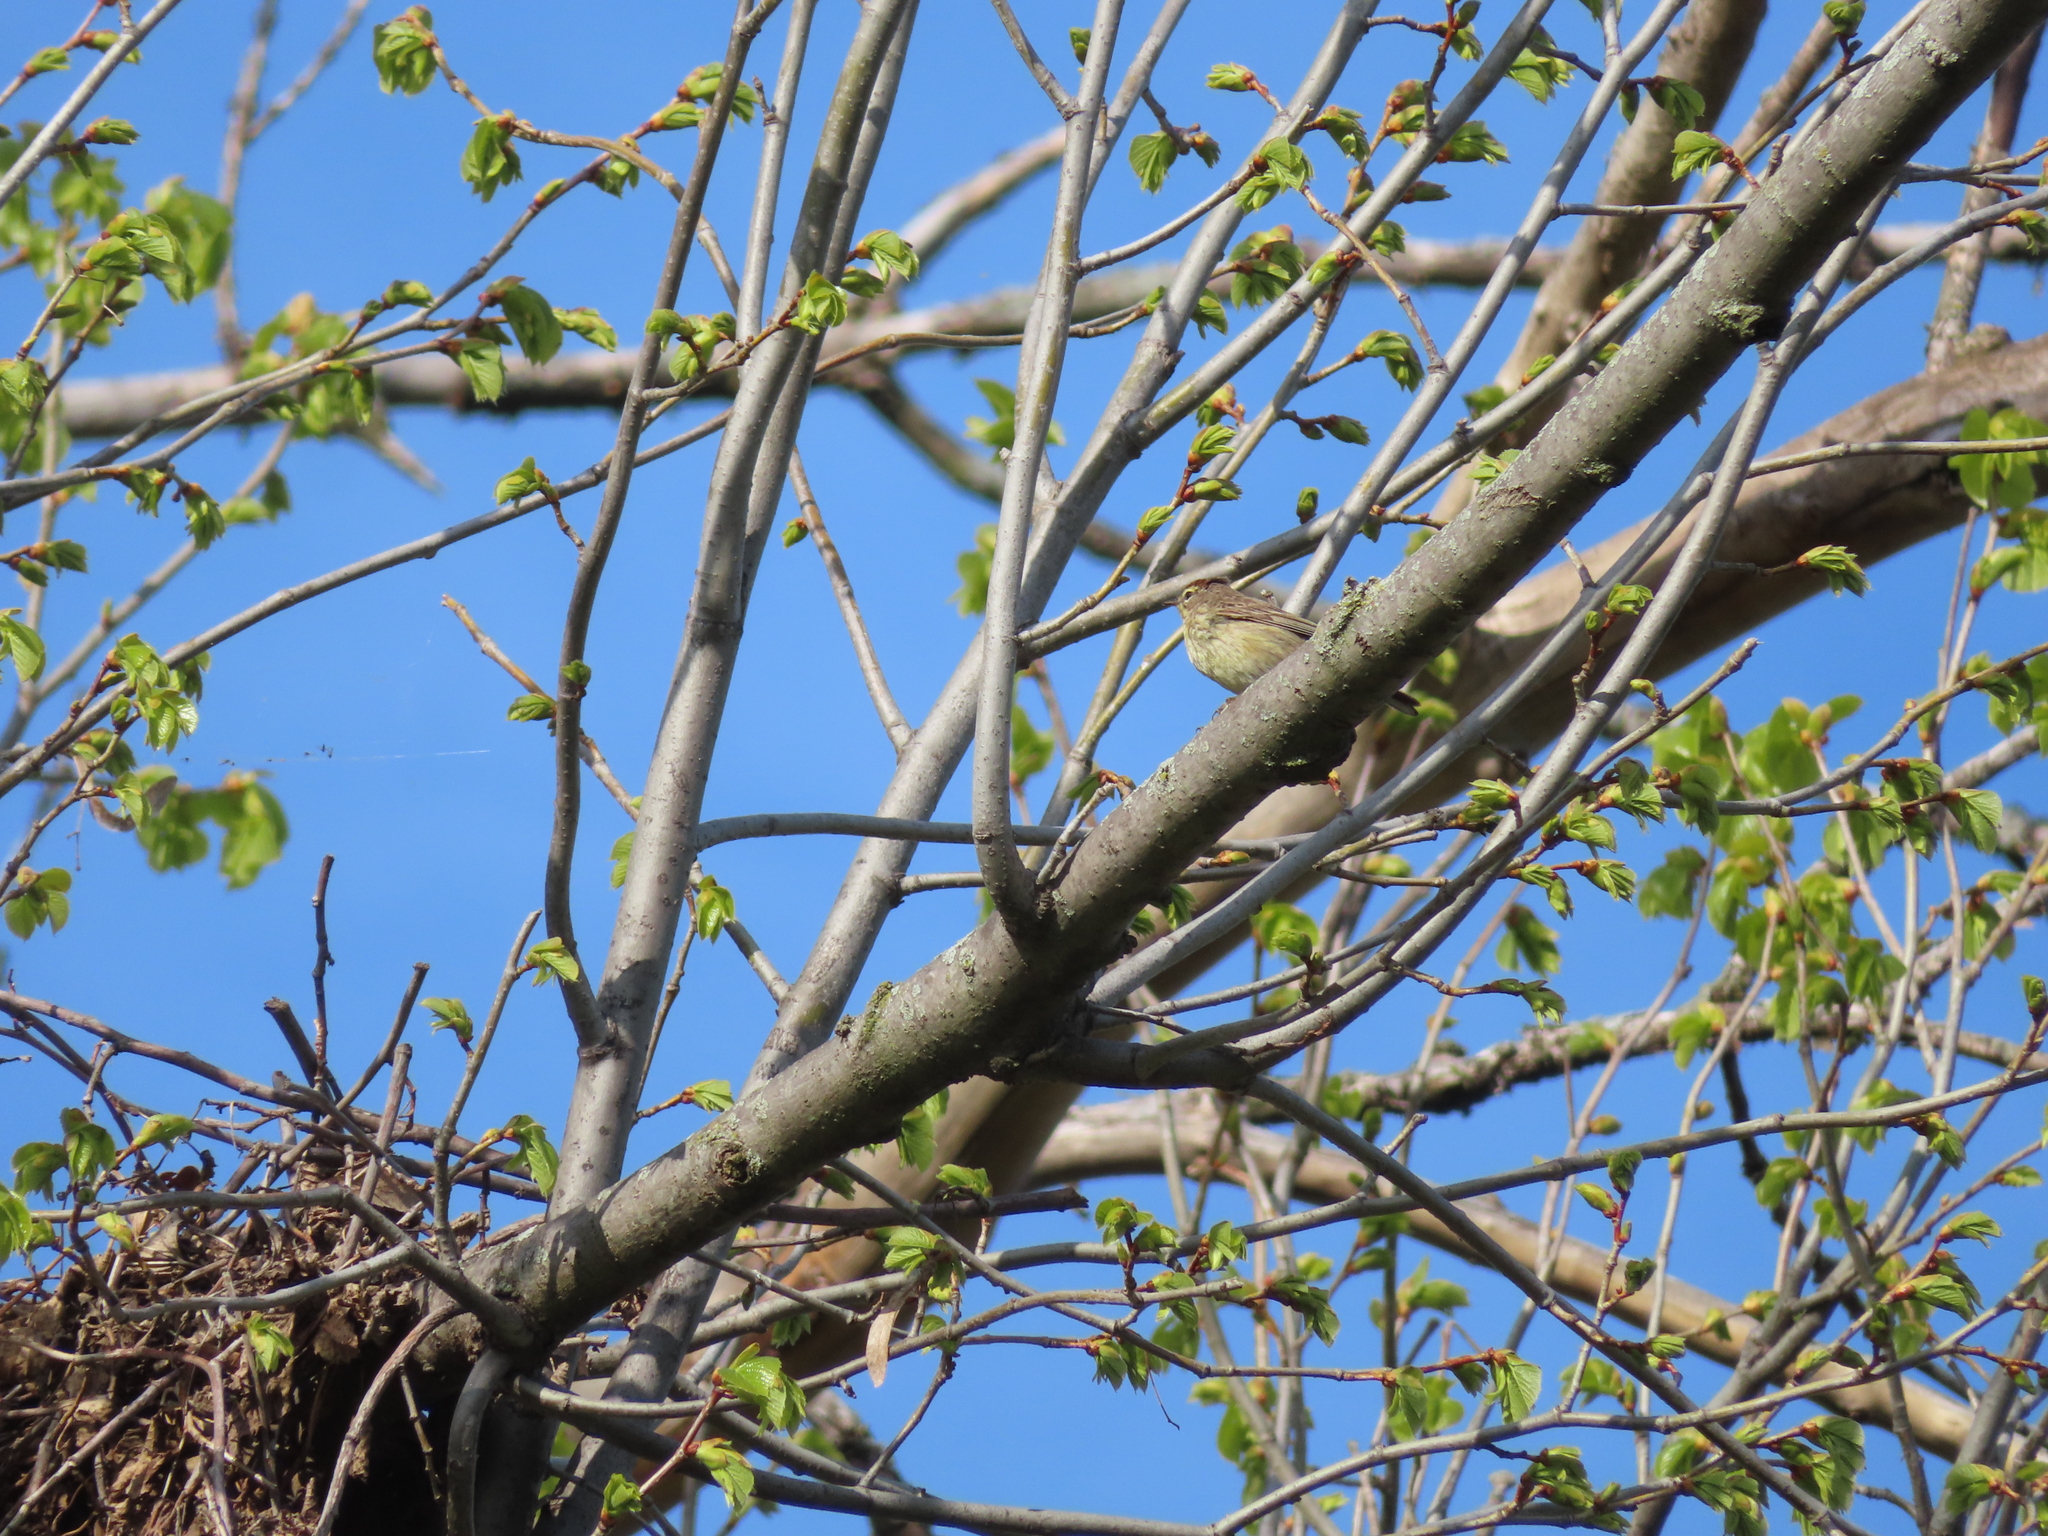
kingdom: Animalia
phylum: Chordata
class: Aves
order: Passeriformes
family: Parulidae
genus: Setophaga
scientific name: Setophaga palmarum
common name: Palm warbler
